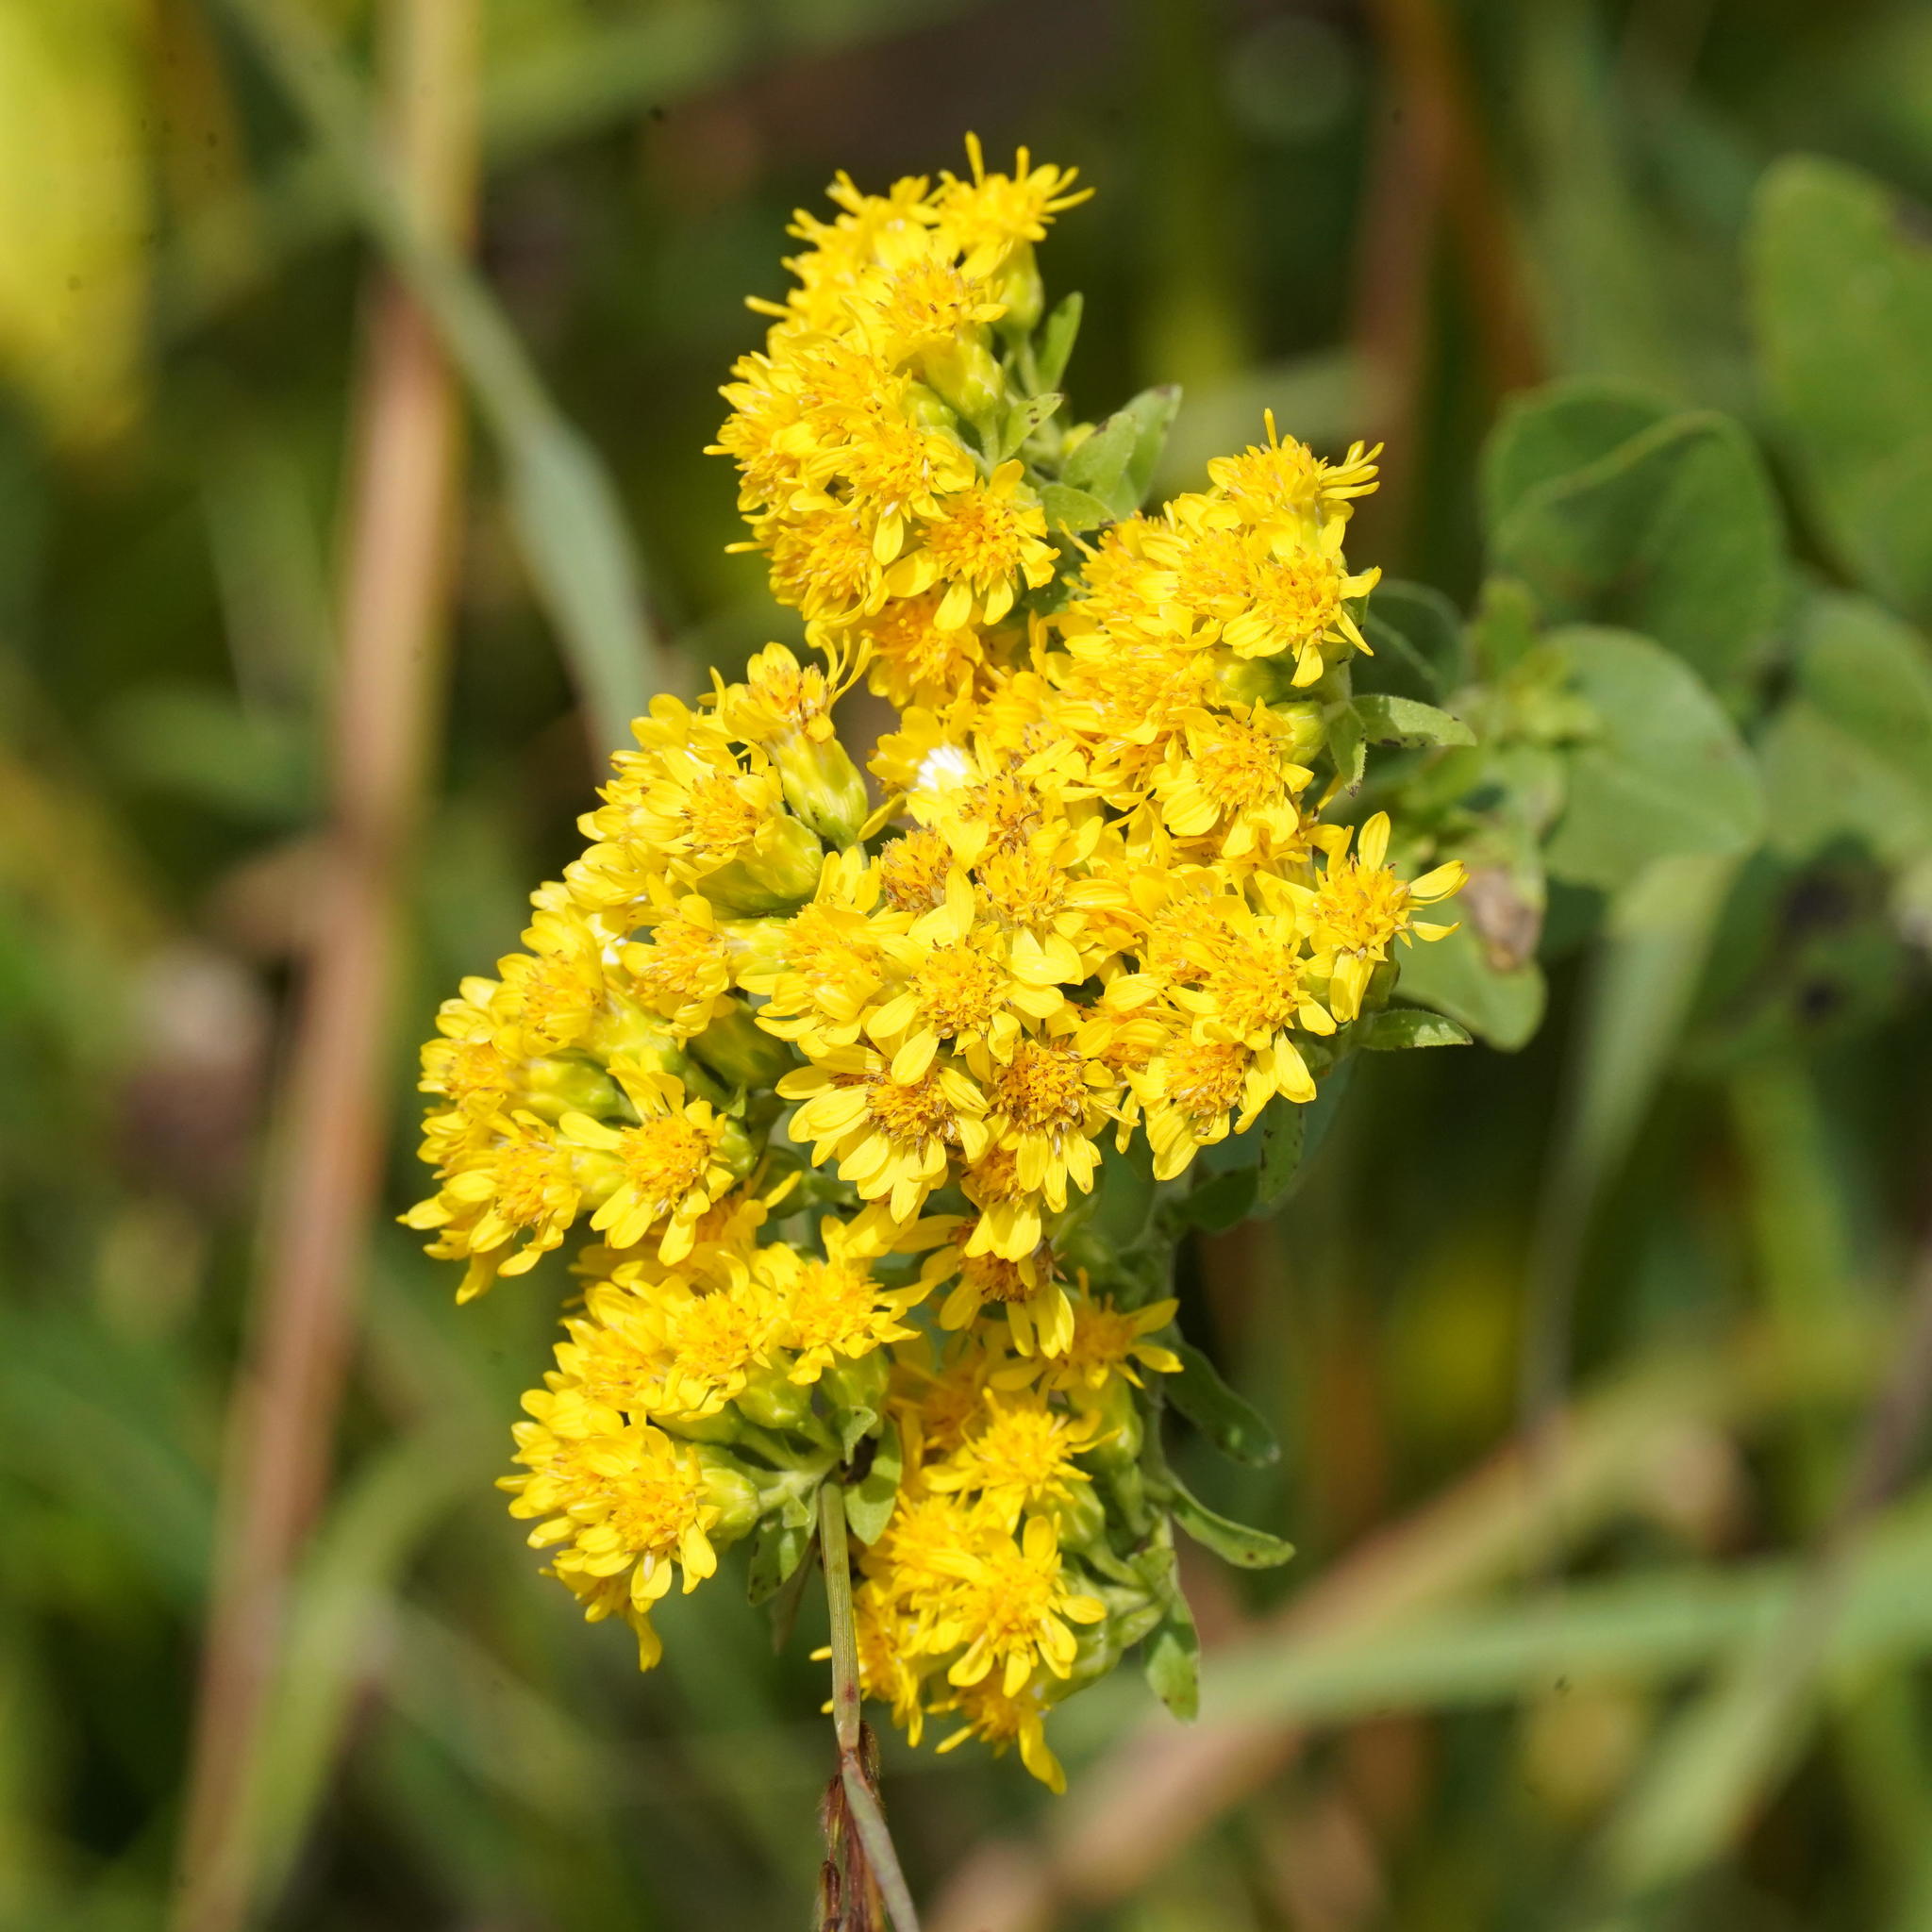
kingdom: Plantae
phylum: Tracheophyta
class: Magnoliopsida
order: Asterales
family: Asteraceae
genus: Solidago
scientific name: Solidago rigida
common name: Rigid goldenrod
